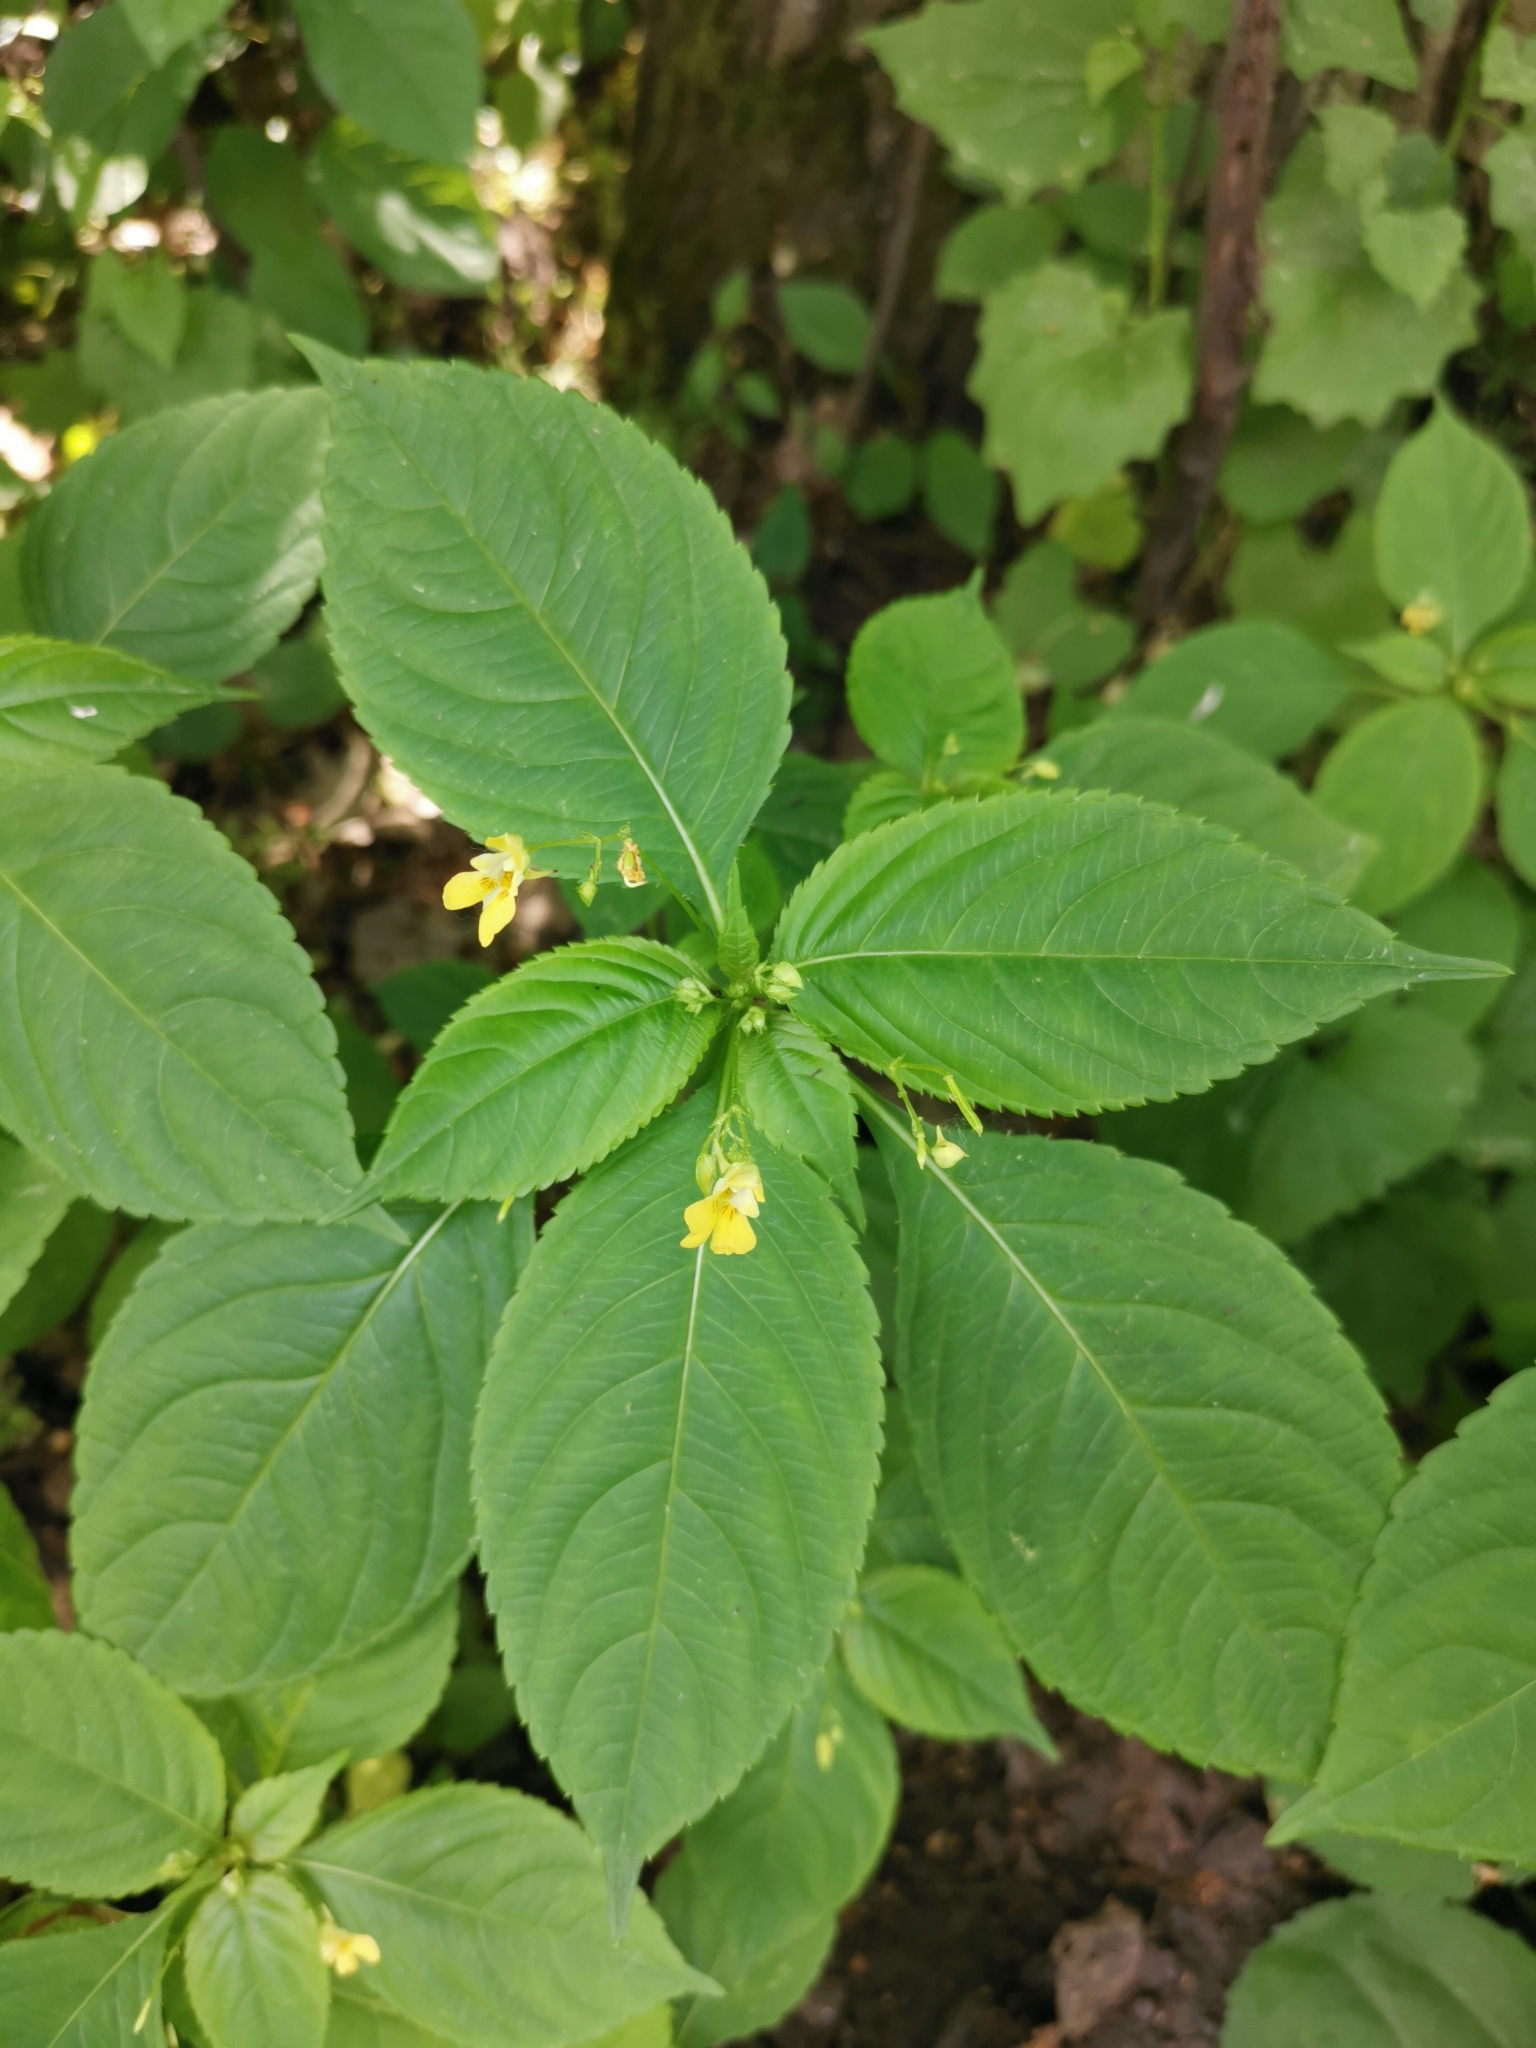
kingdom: Plantae
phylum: Tracheophyta
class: Magnoliopsida
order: Ericales
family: Balsaminaceae
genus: Impatiens
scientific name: Impatiens parviflora
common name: Small balsam
